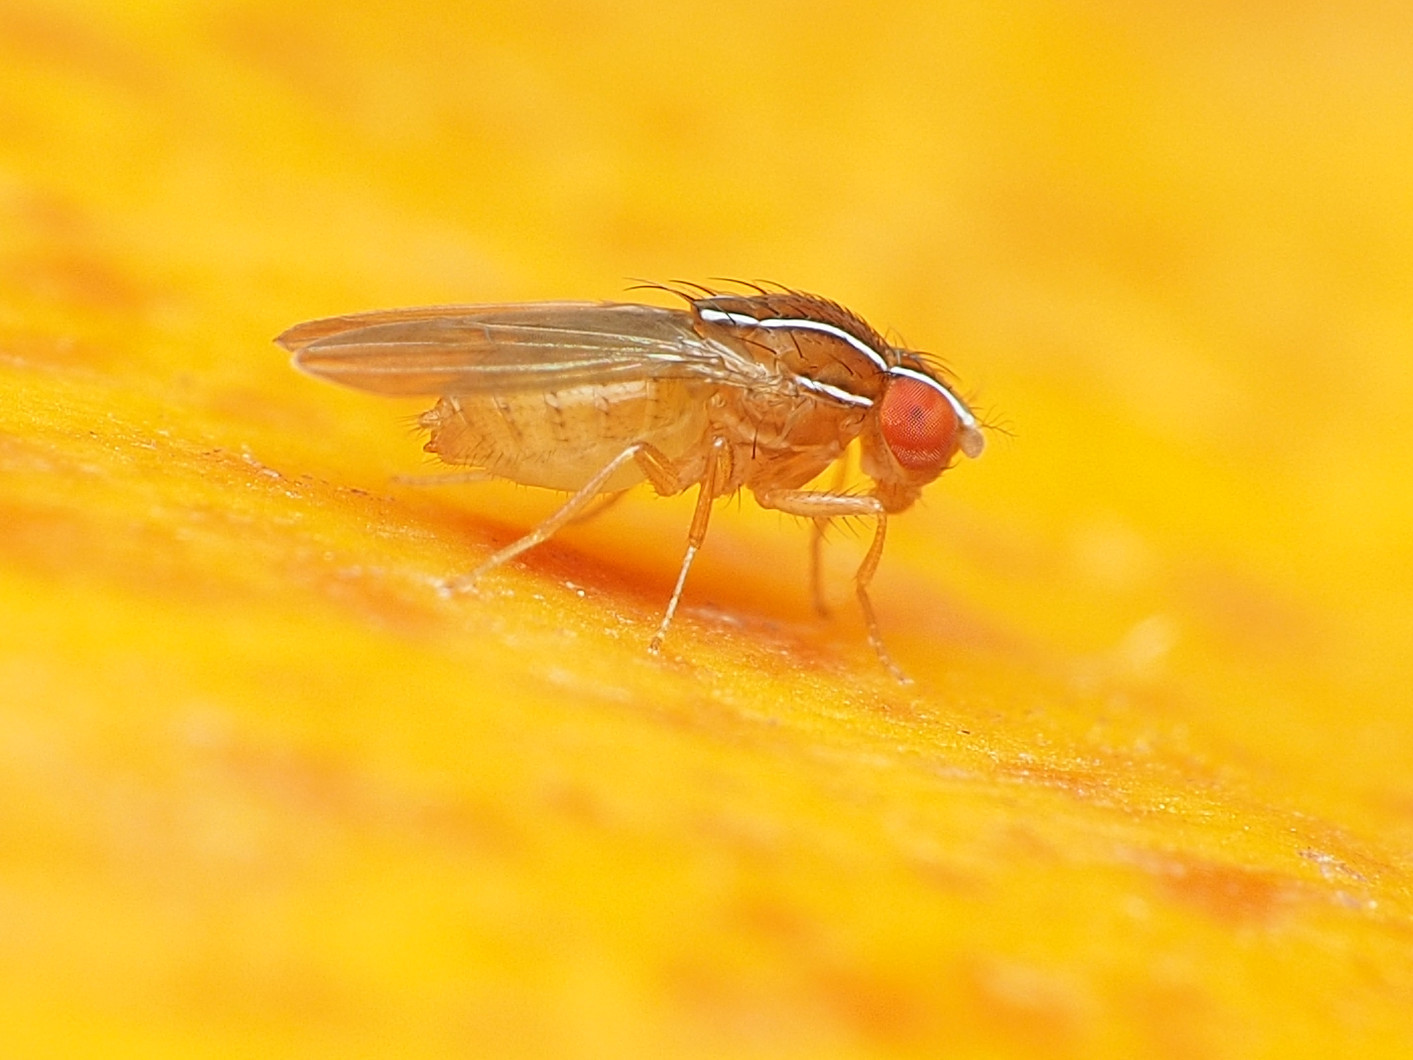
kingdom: Animalia
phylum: Arthropoda
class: Insecta
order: Diptera
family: Drosophilidae
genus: Zaprionus
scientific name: Zaprionus indianus
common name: African fig fly
